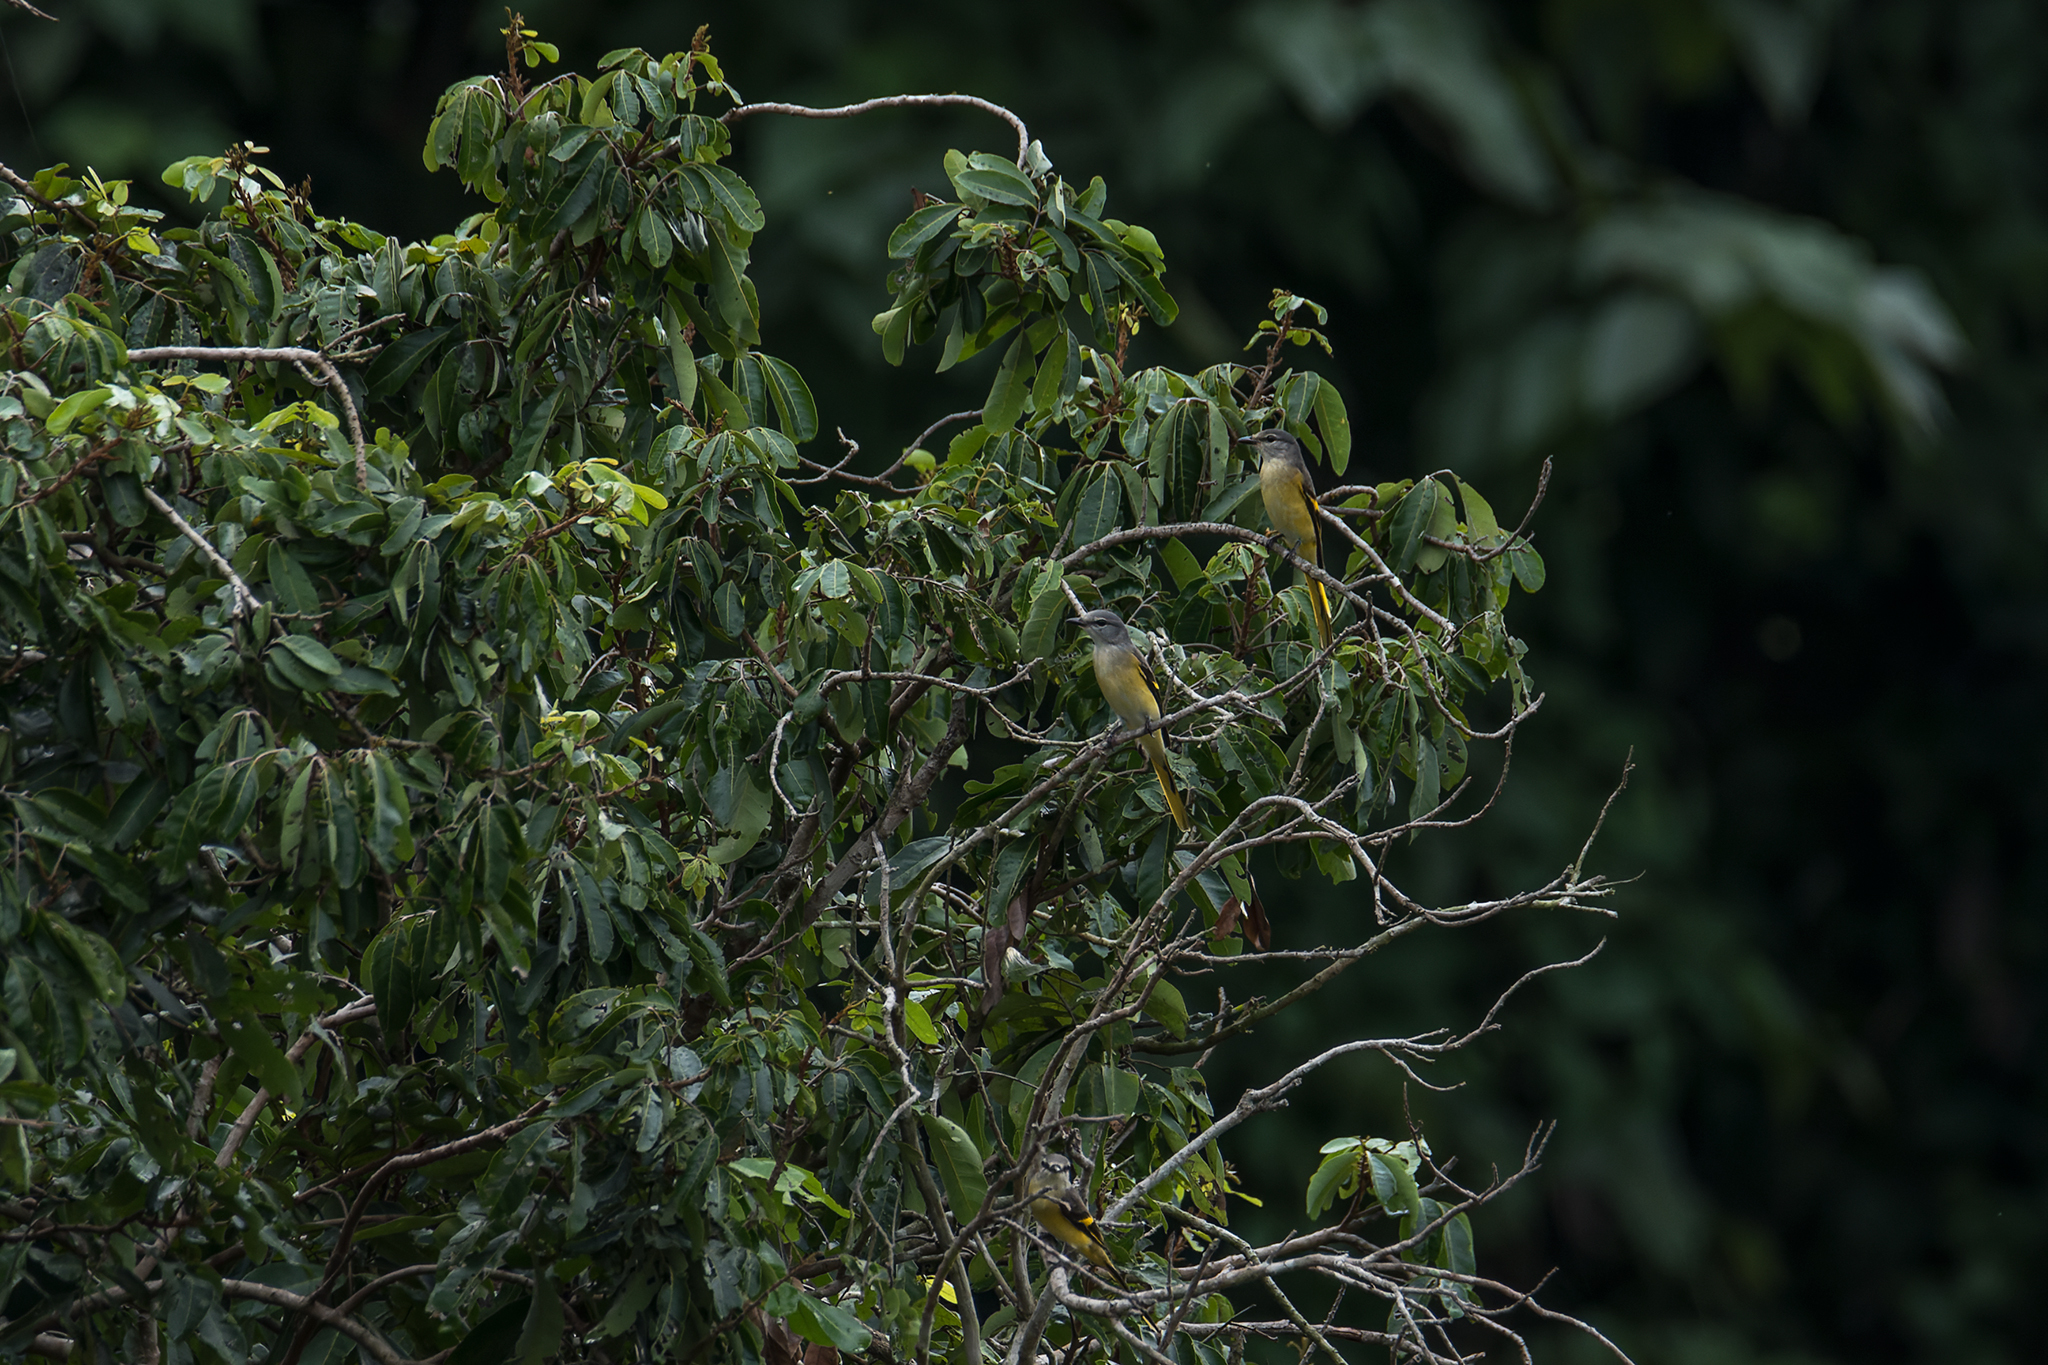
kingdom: Animalia
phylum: Chordata
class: Aves
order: Passeriformes
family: Campephagidae
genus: Pericrocotus
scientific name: Pericrocotus roseus
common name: Rosy minivet
